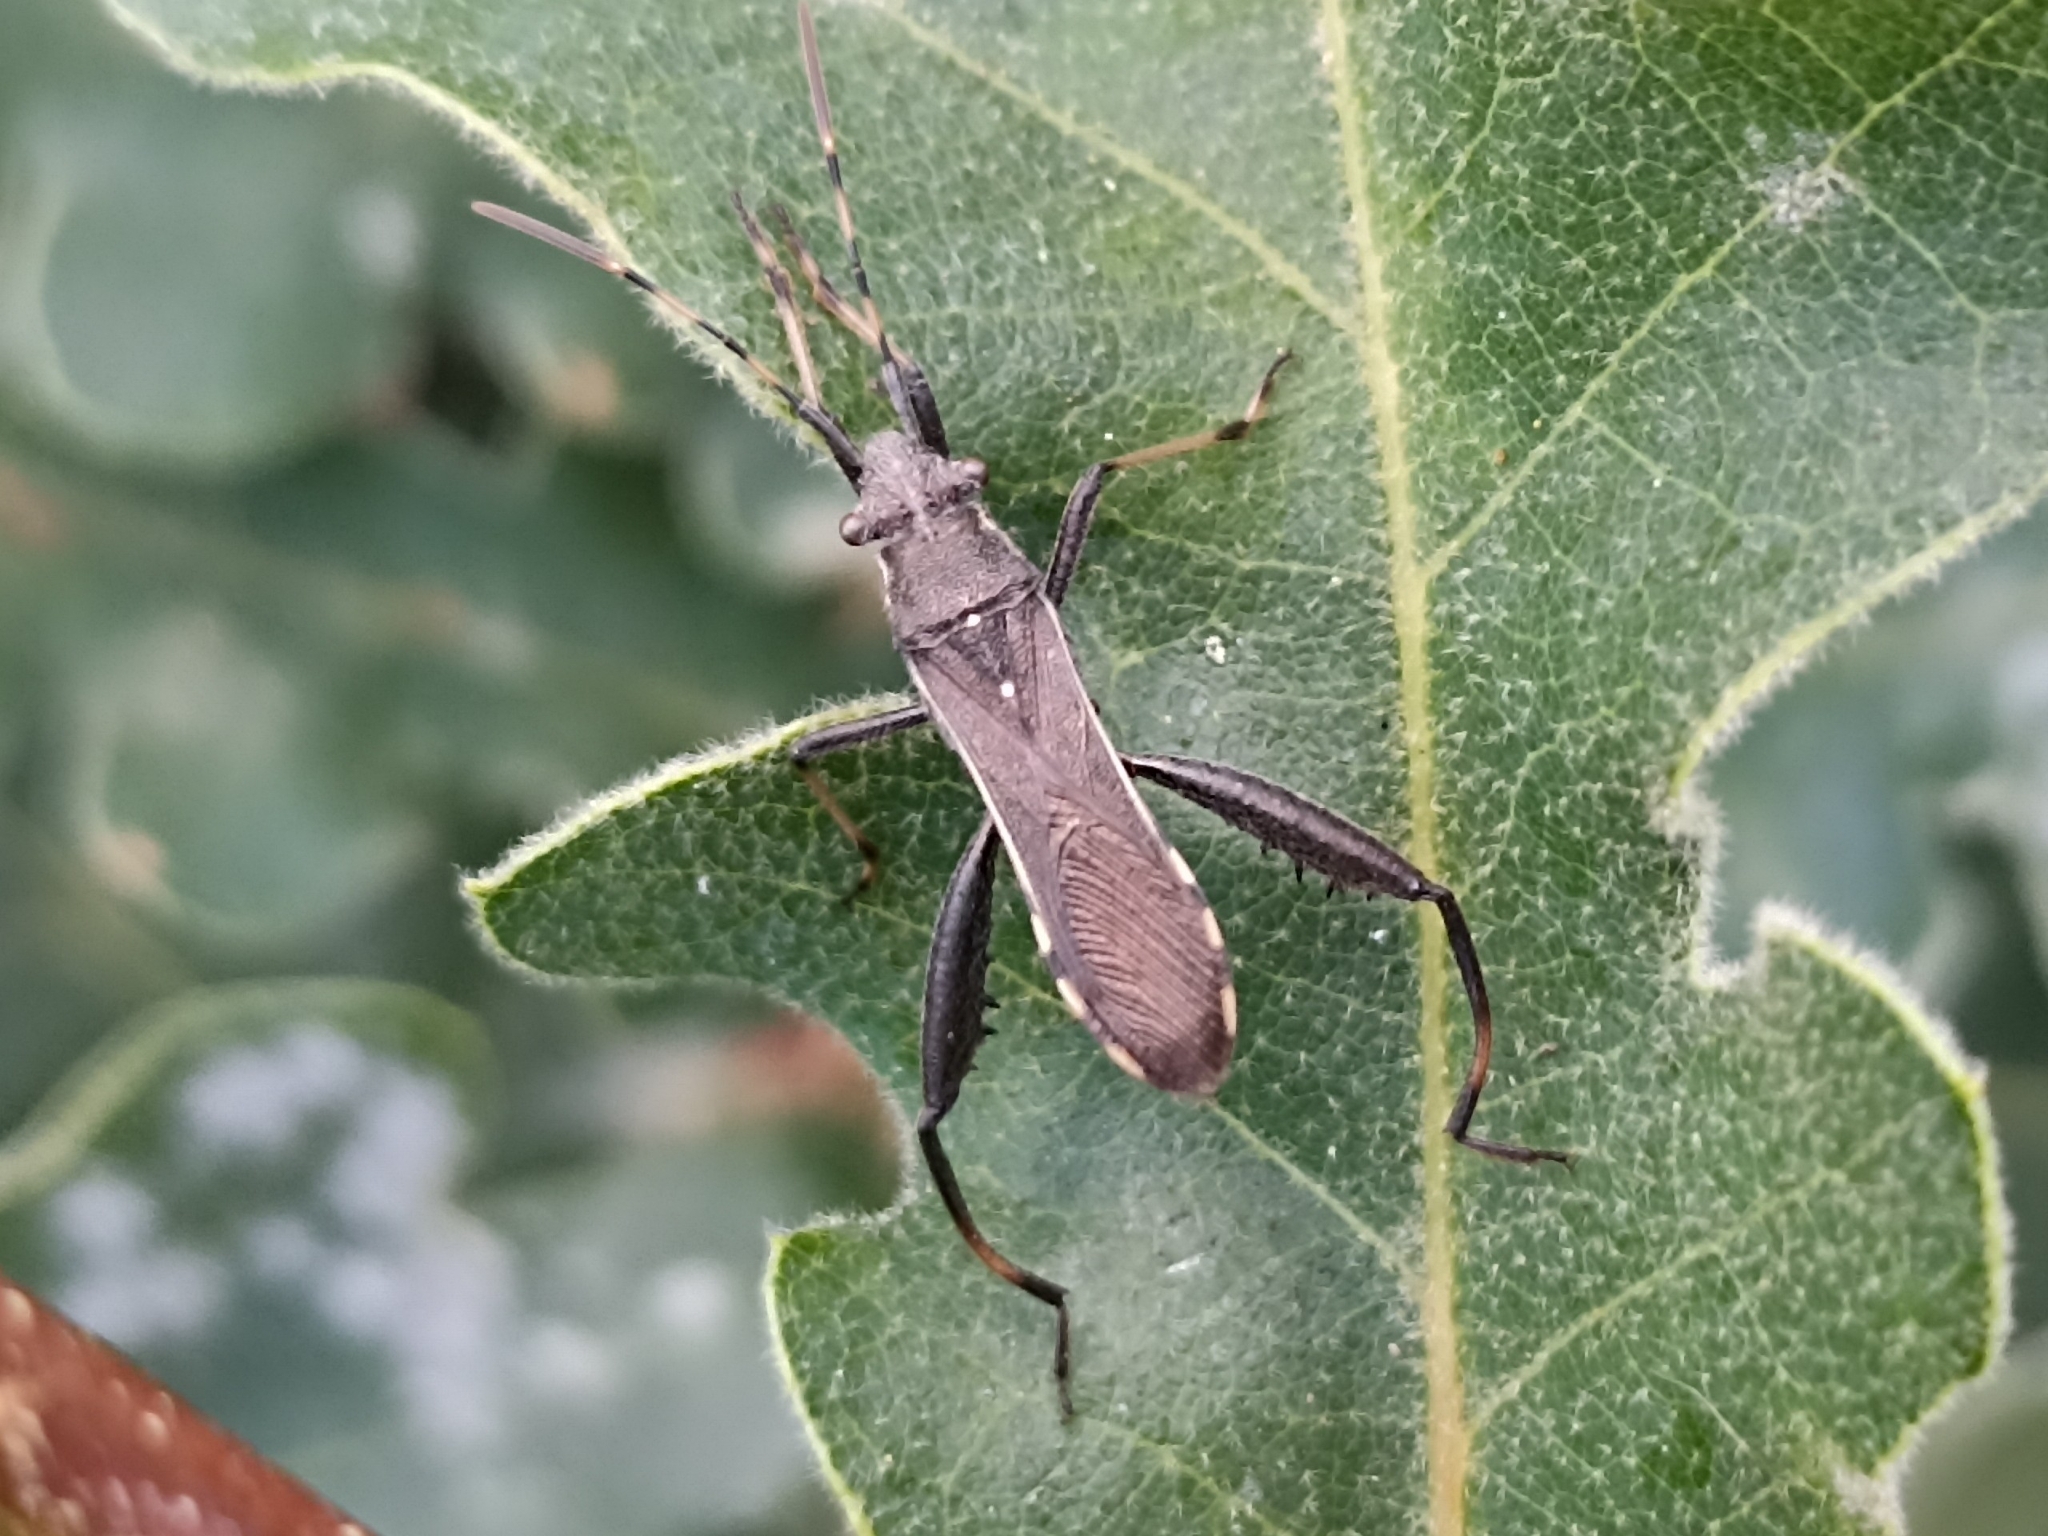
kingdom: Animalia
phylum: Arthropoda
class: Insecta
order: Hemiptera
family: Alydidae
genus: Camptopus
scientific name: Camptopus lateralis
